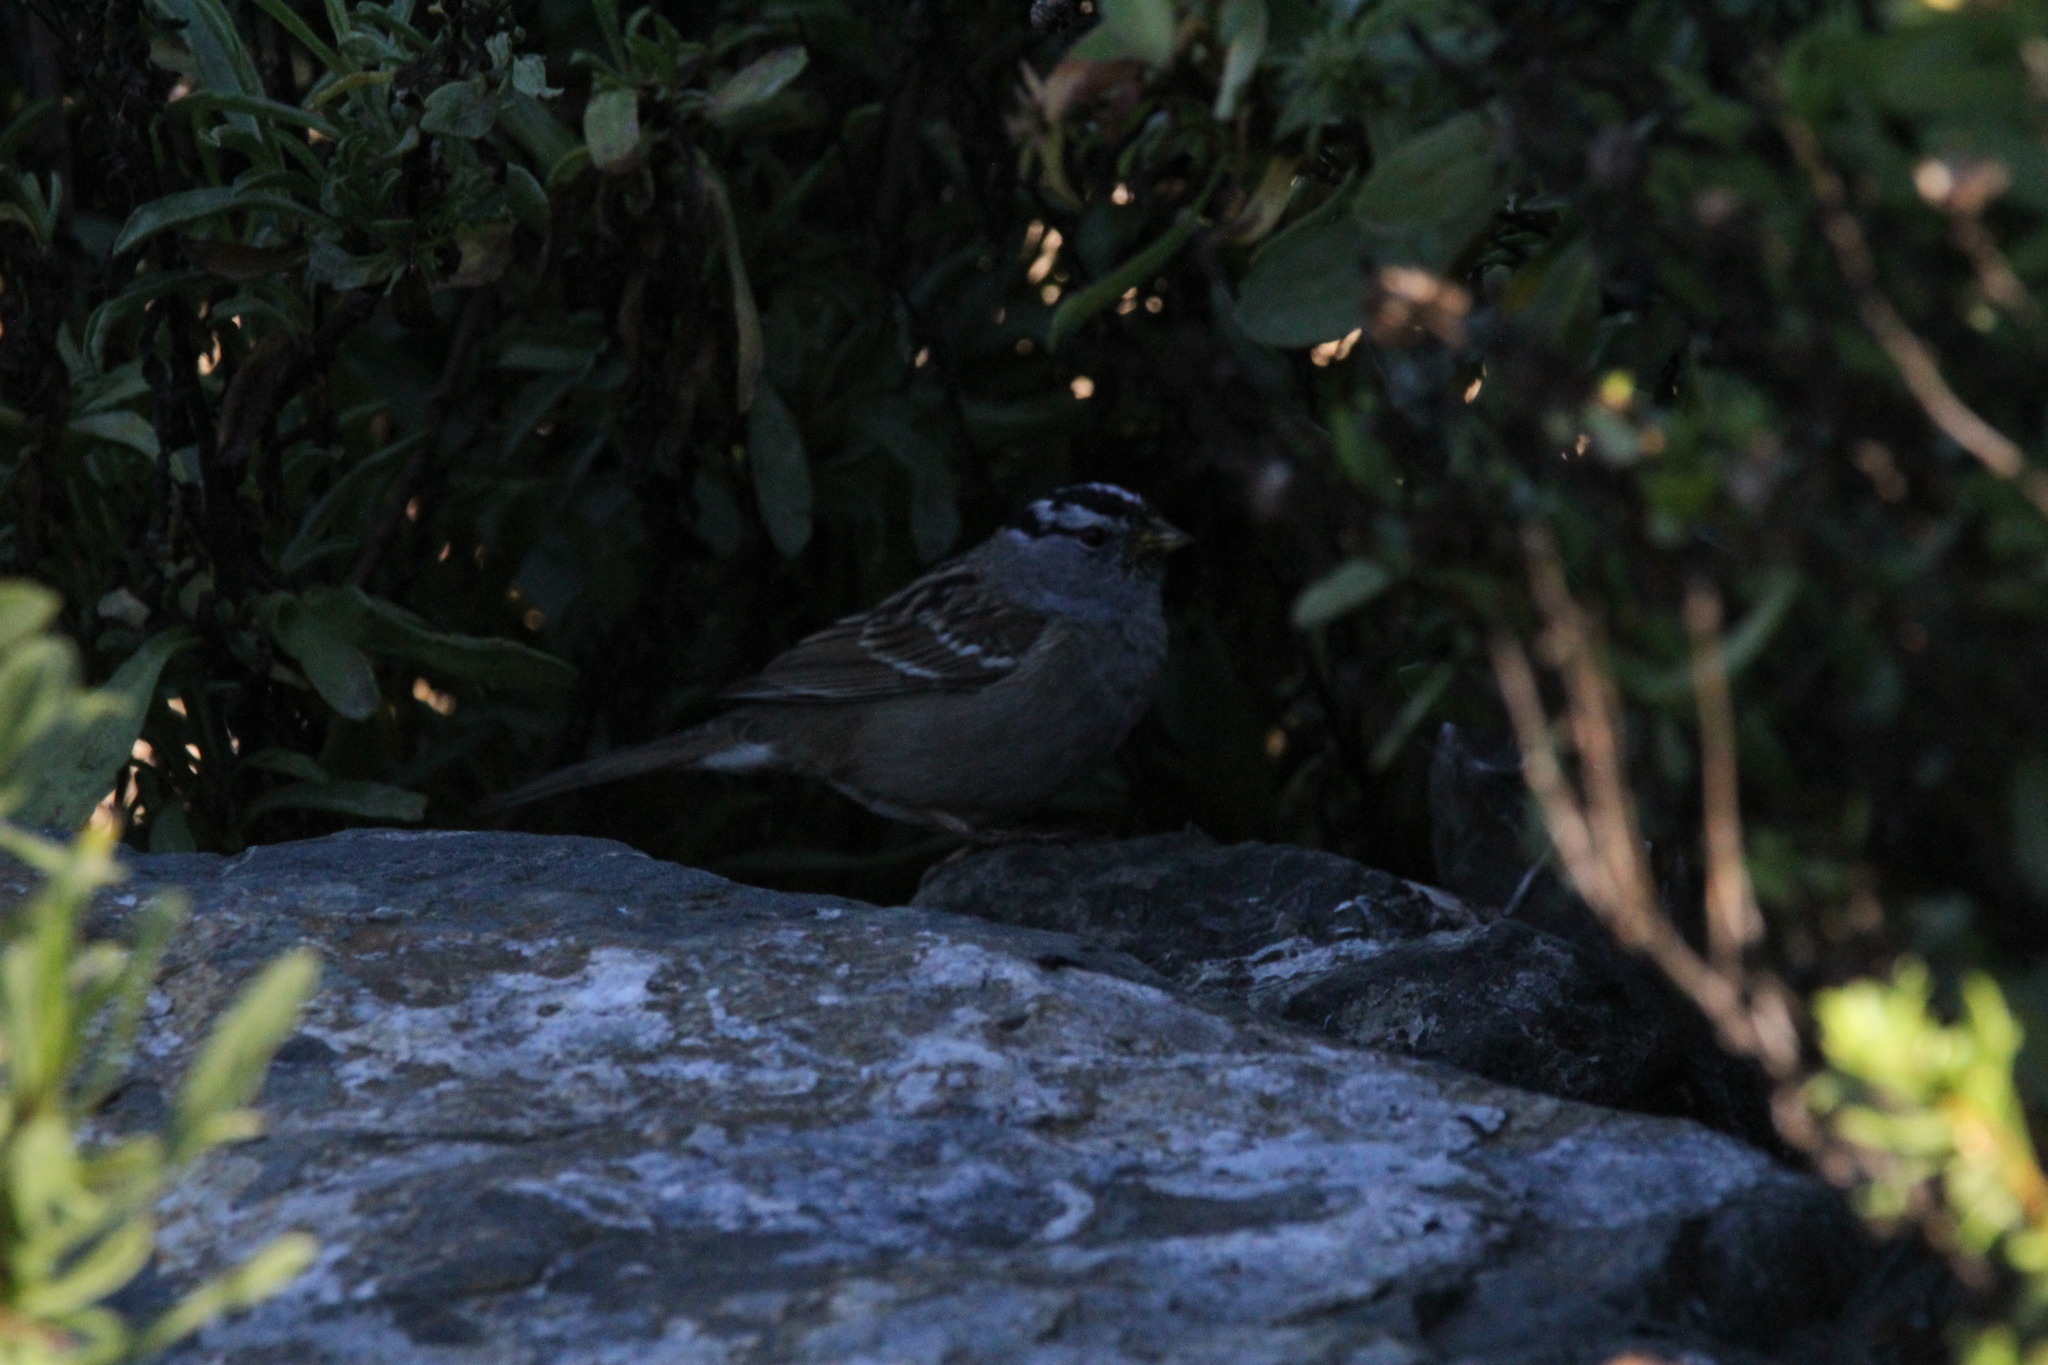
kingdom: Animalia
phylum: Chordata
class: Aves
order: Passeriformes
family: Passerellidae
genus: Zonotrichia
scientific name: Zonotrichia leucophrys
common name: White-crowned sparrow
